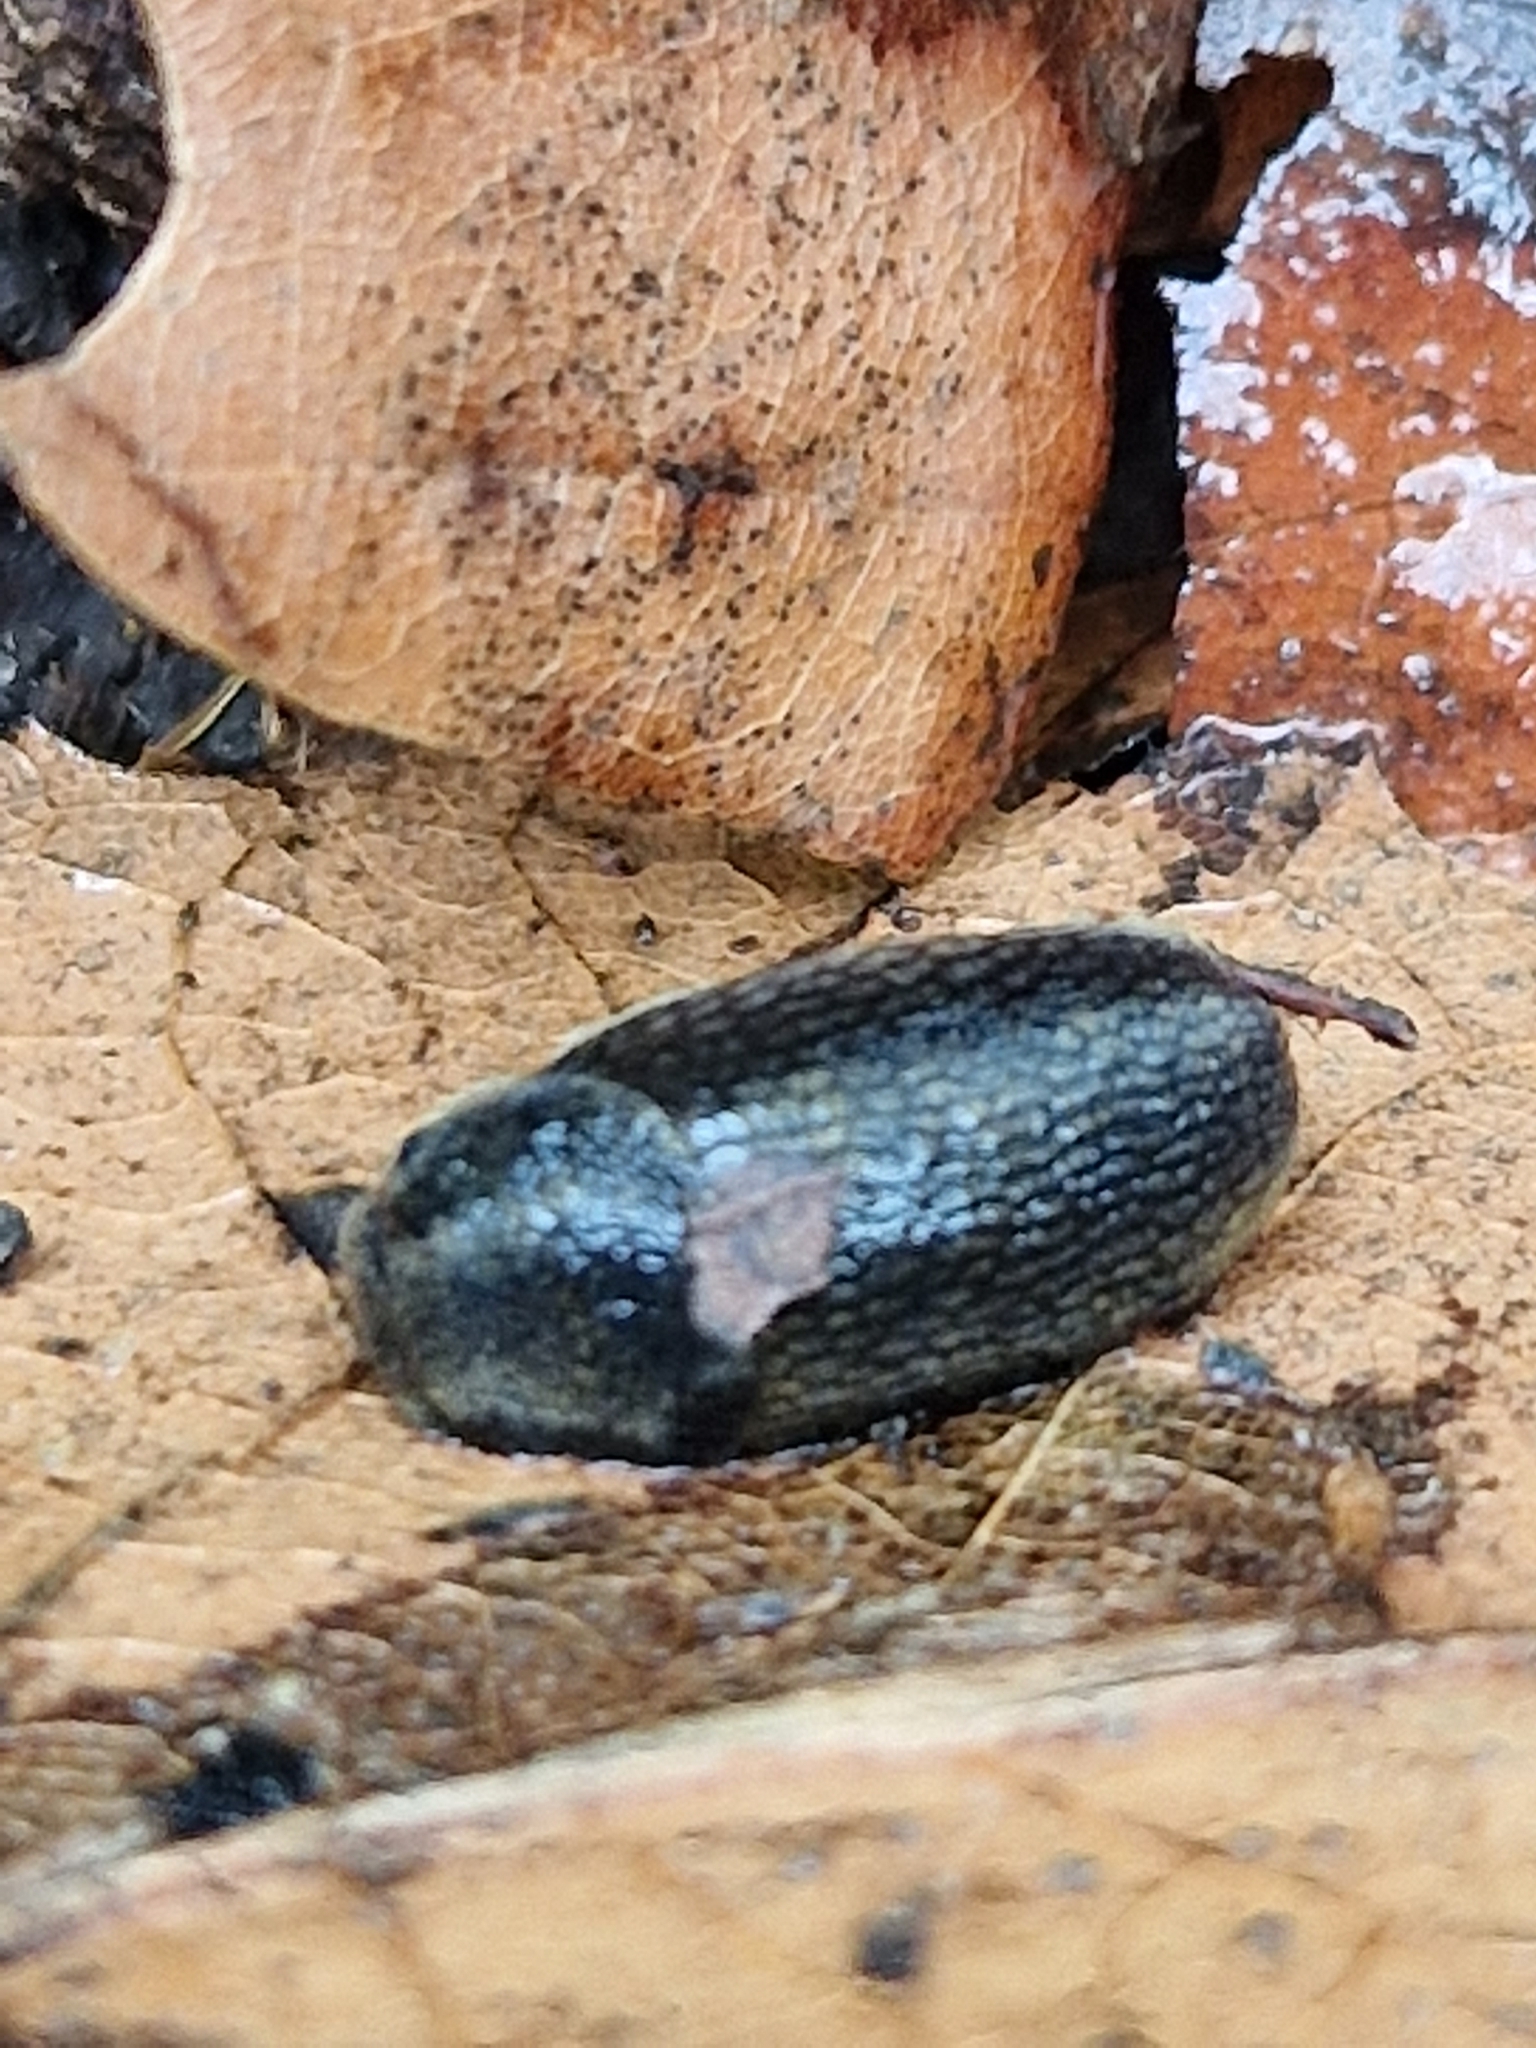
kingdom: Animalia
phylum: Mollusca
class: Gastropoda
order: Stylommatophora
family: Arionidae
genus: Arion
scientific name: Arion hortensis
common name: Garden arion
